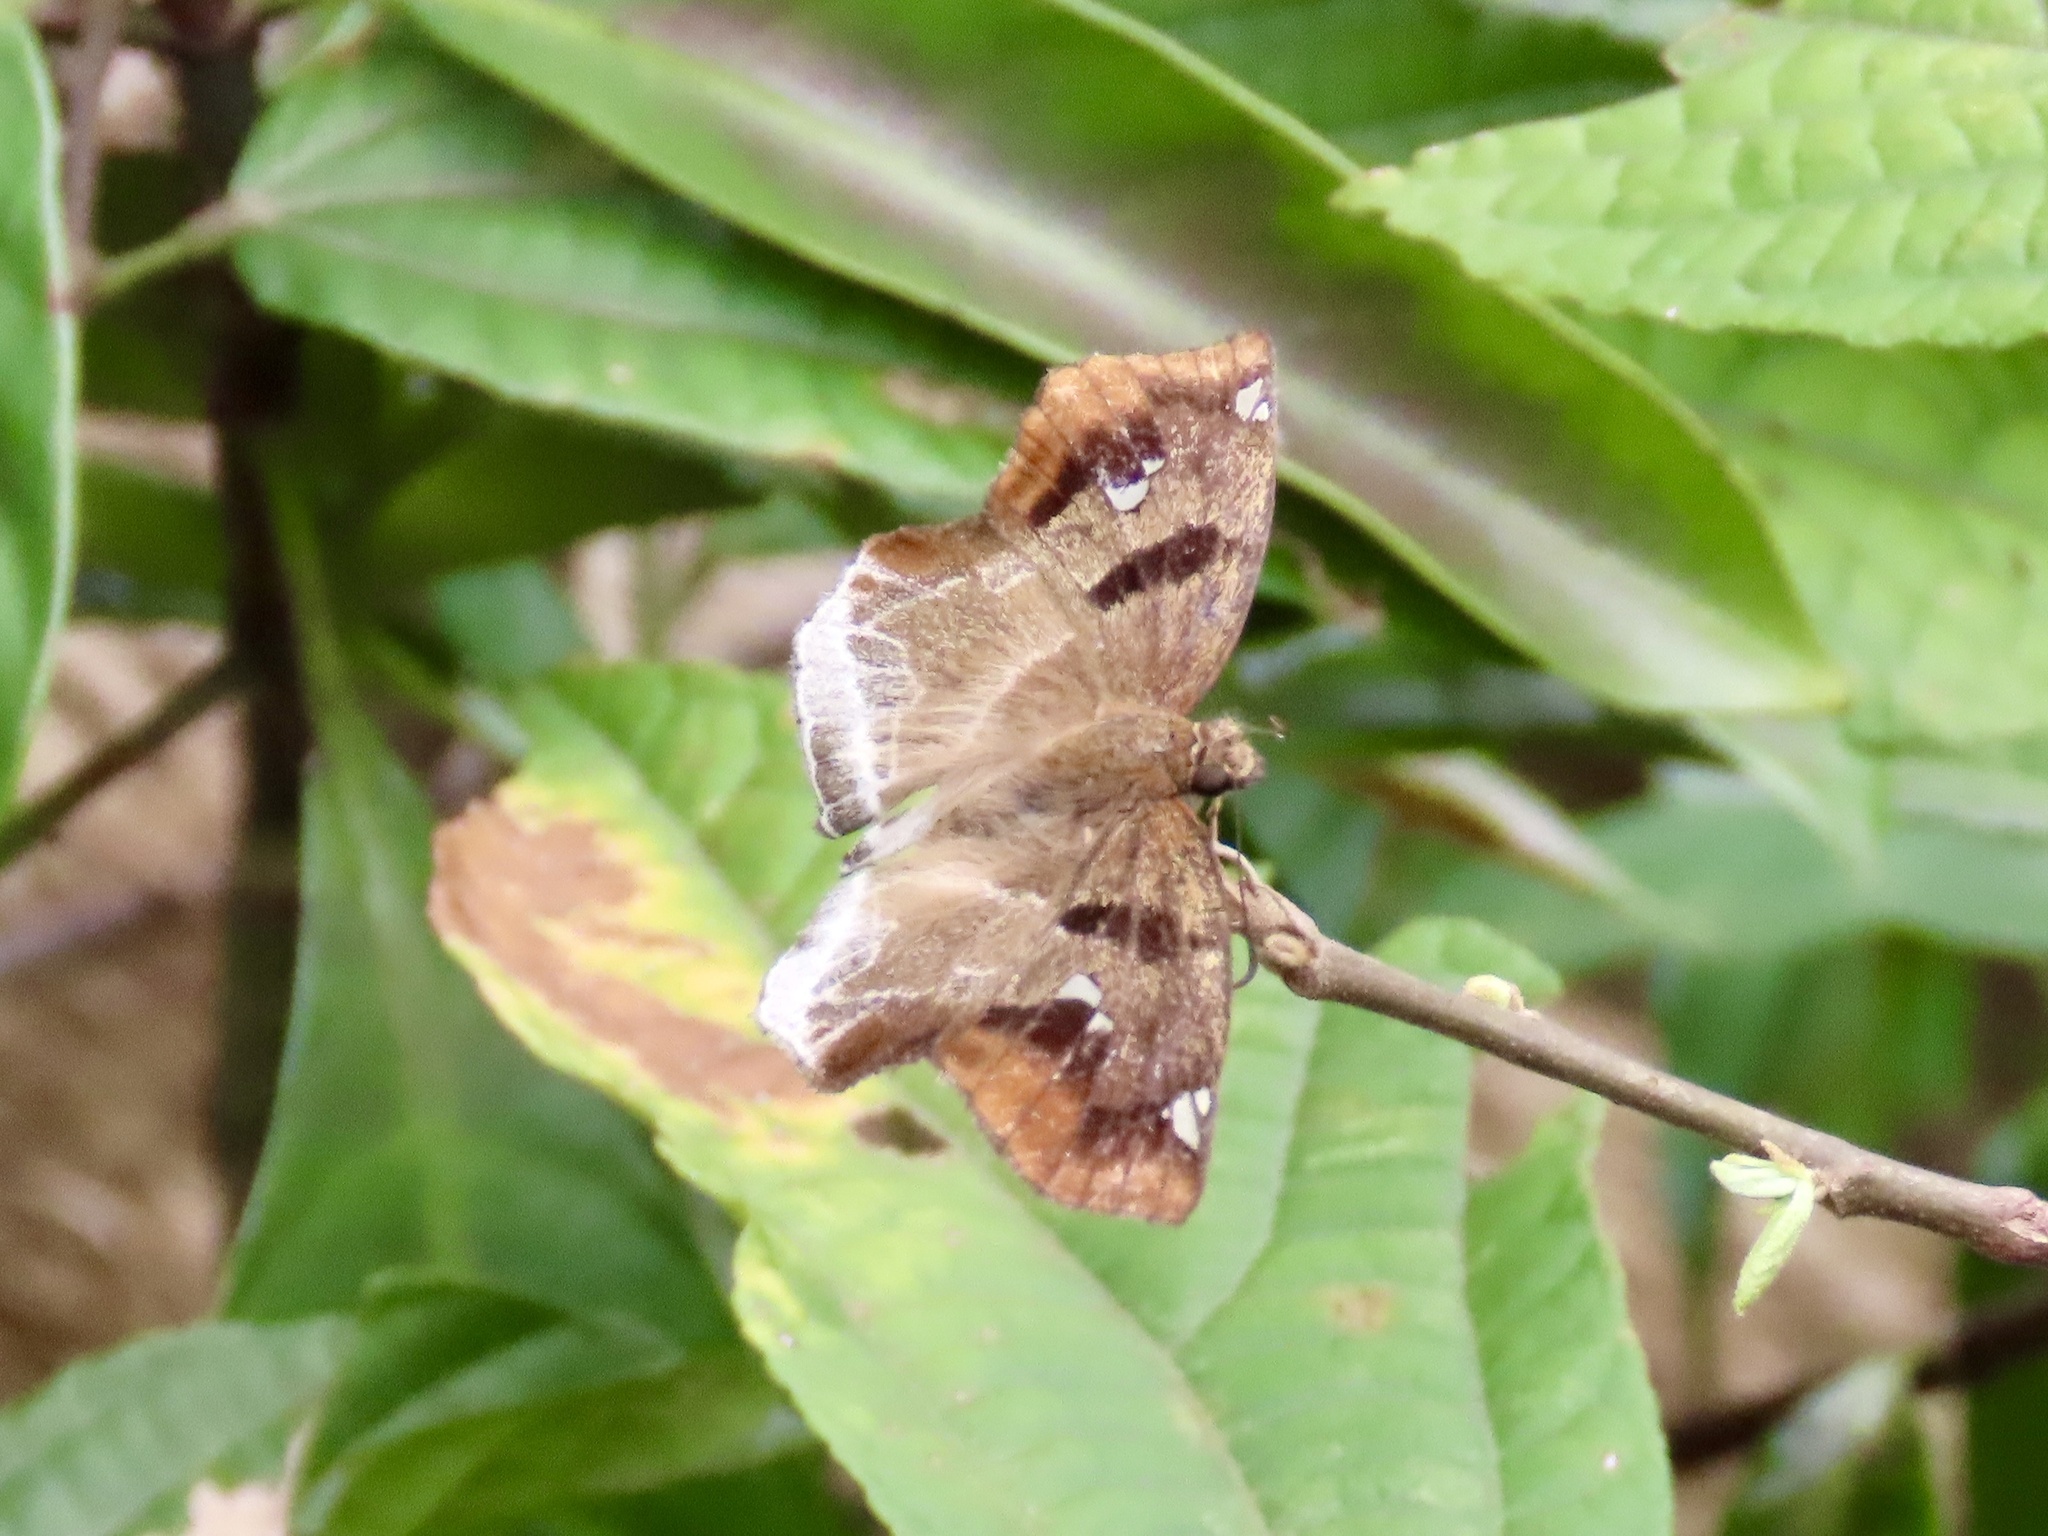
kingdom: Animalia
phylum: Arthropoda
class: Insecta
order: Lepidoptera
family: Hesperiidae
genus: Odontoptilum
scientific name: Odontoptilum angulata
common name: Chestnut banded angle
